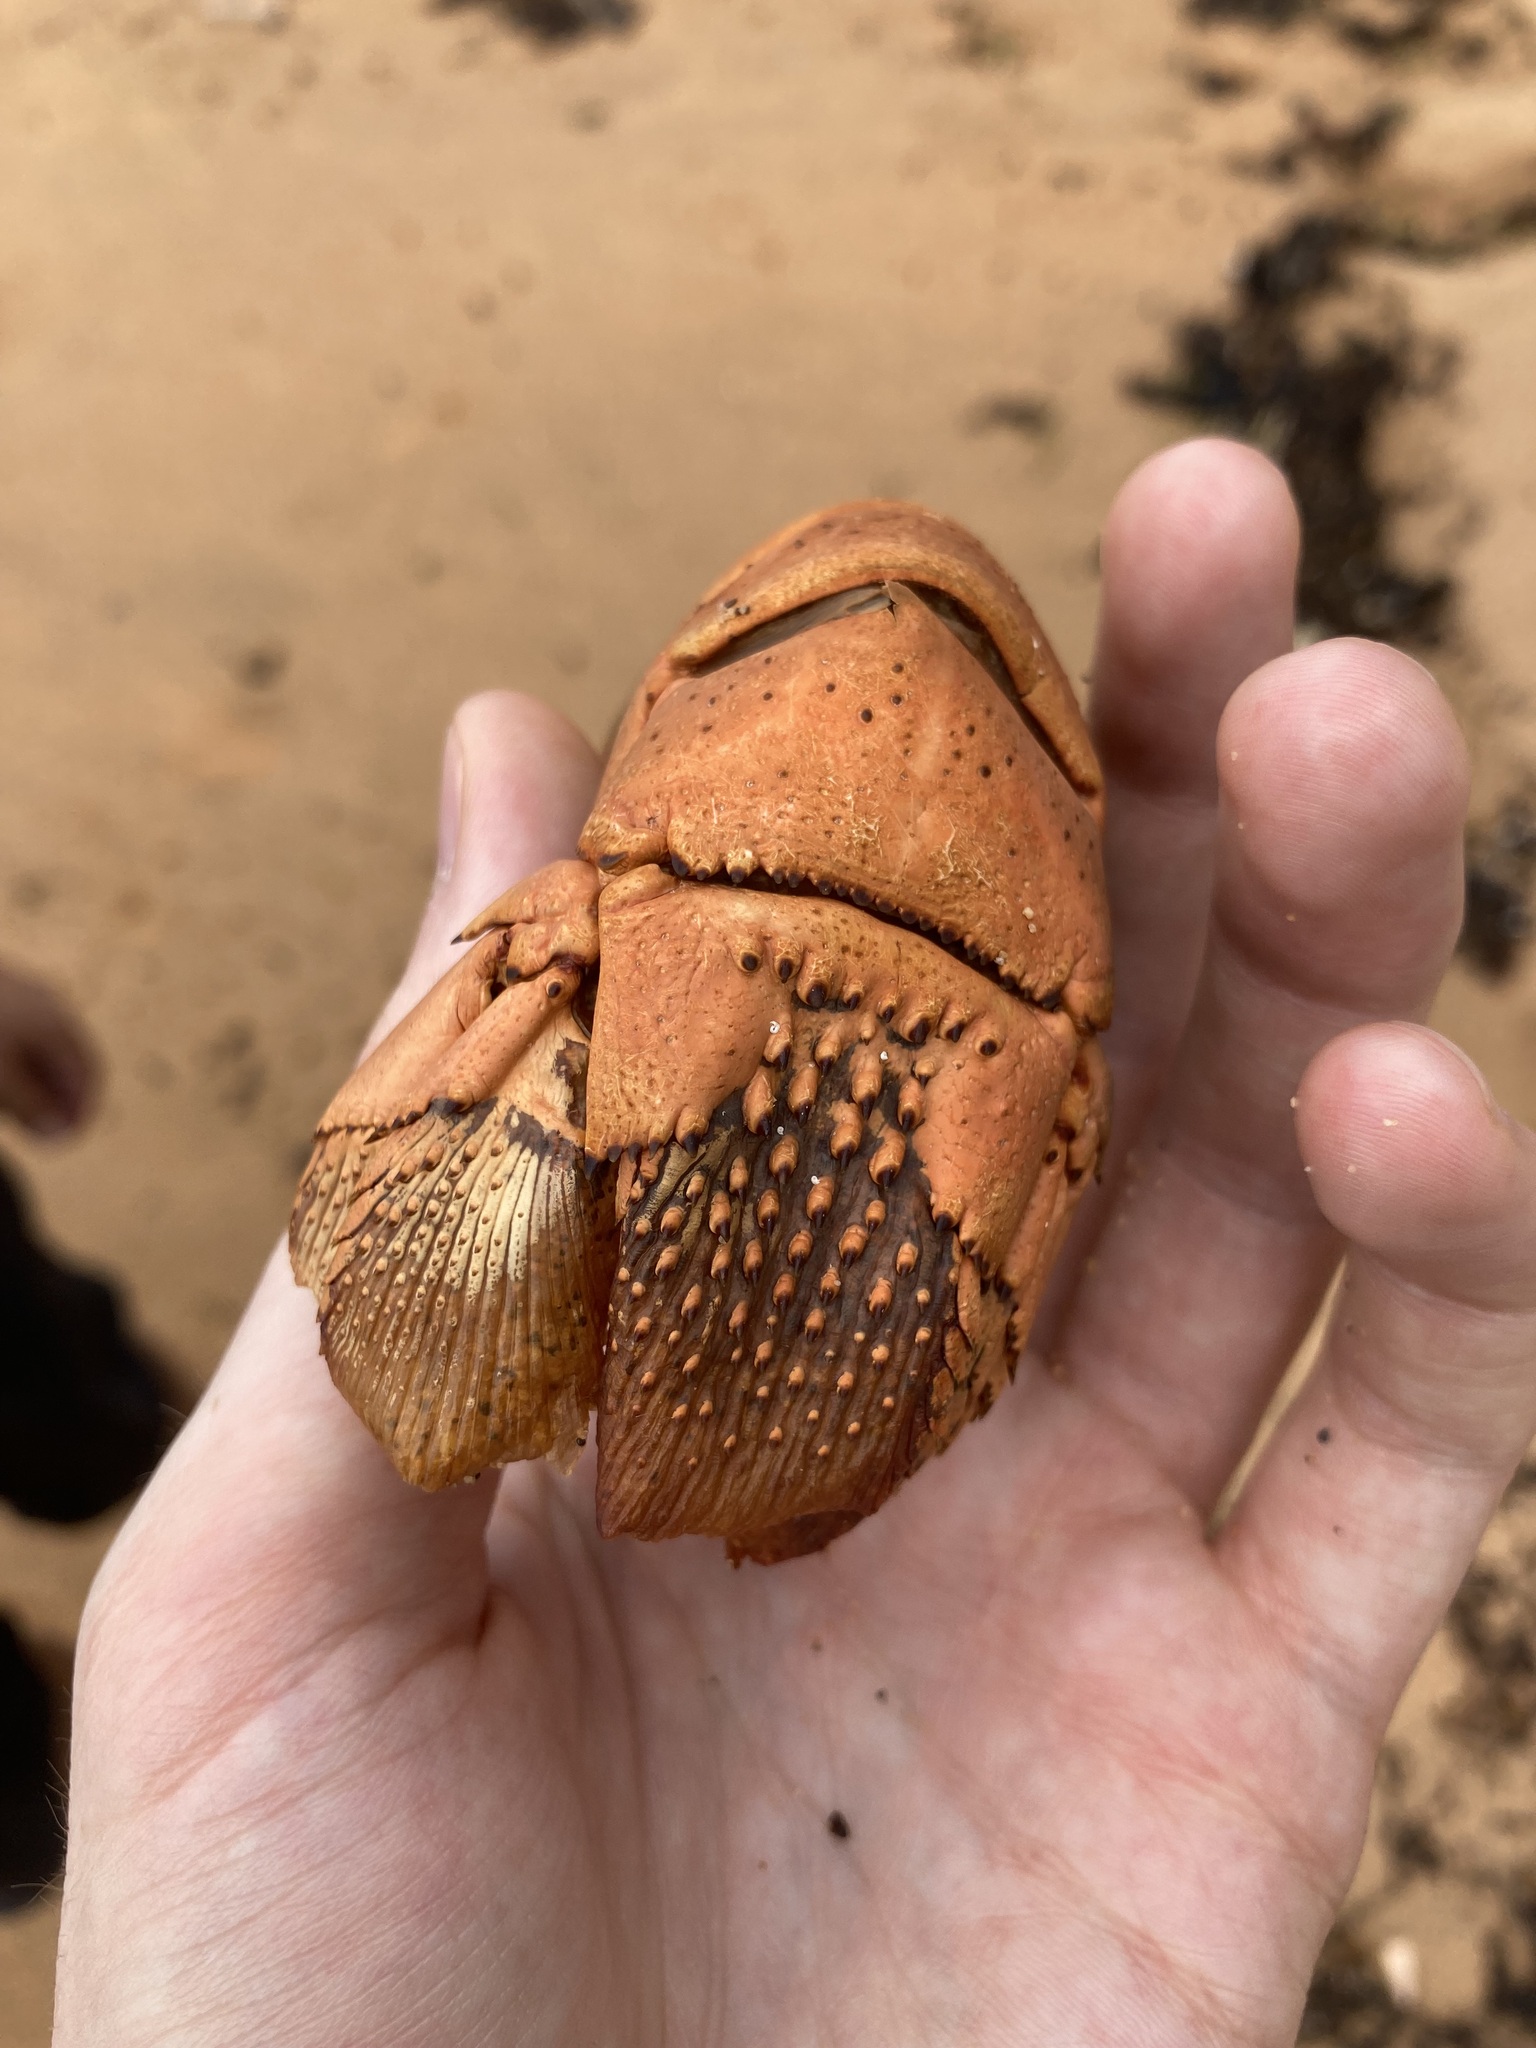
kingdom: Animalia
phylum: Arthropoda
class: Malacostraca
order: Decapoda
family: Palinuridae
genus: Sagmariasus
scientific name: Sagmariasus verreauxi
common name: Green rock lobster
